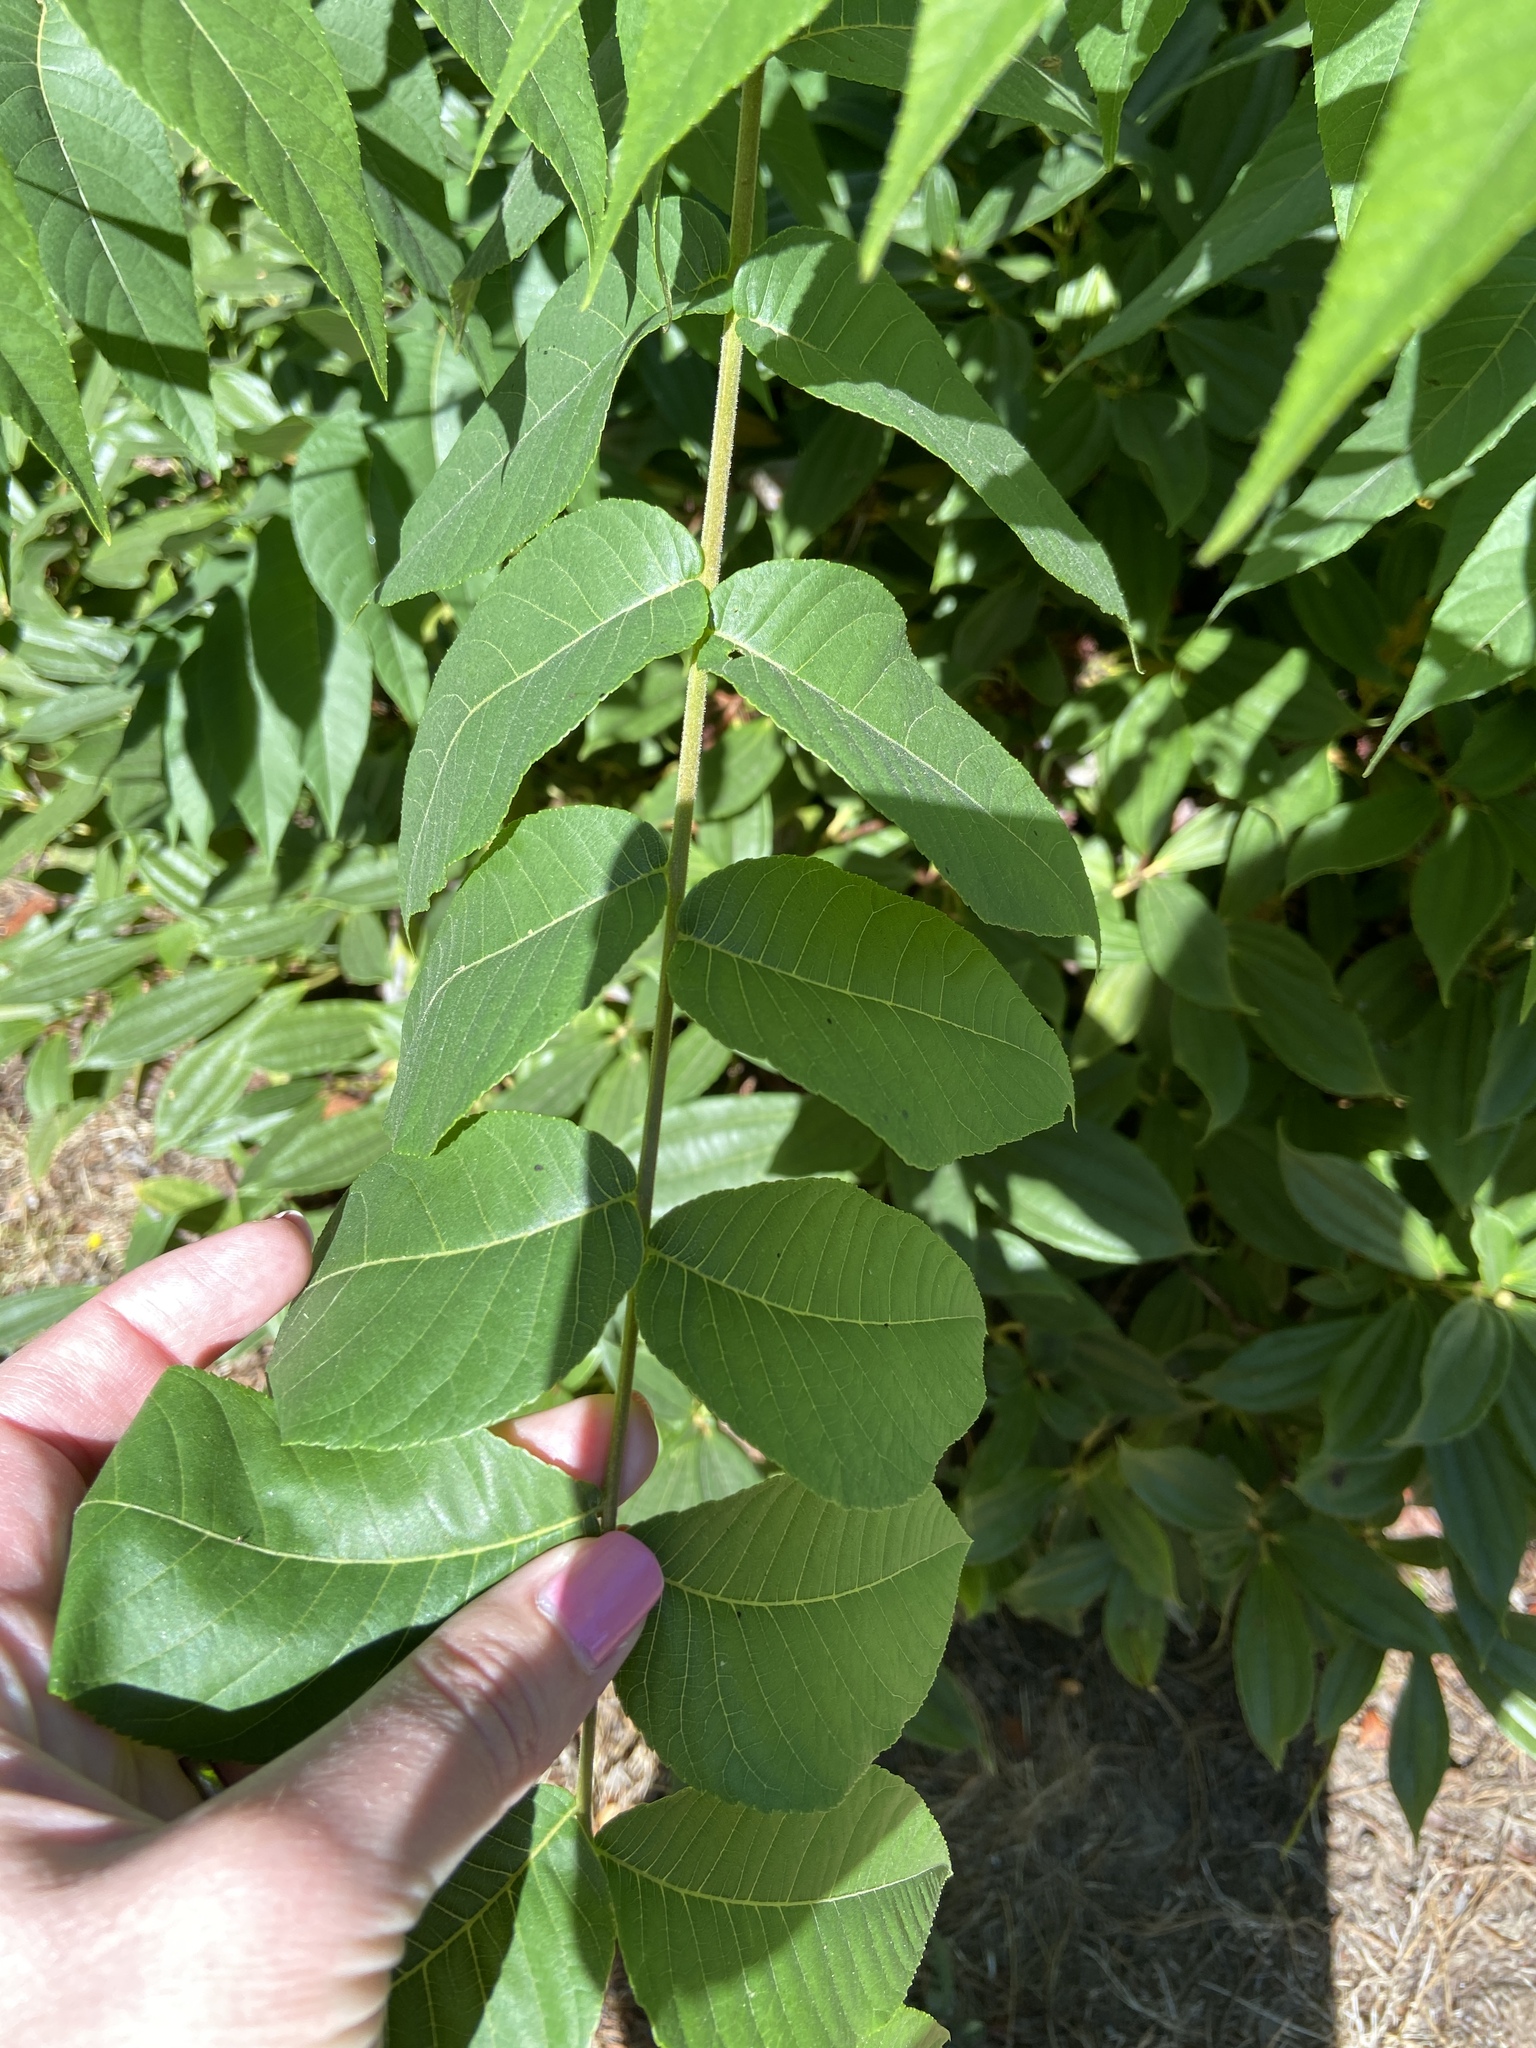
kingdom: Plantae
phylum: Tracheophyta
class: Magnoliopsida
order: Fagales
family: Juglandaceae
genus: Juglans
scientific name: Juglans nigra
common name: Black walnut
